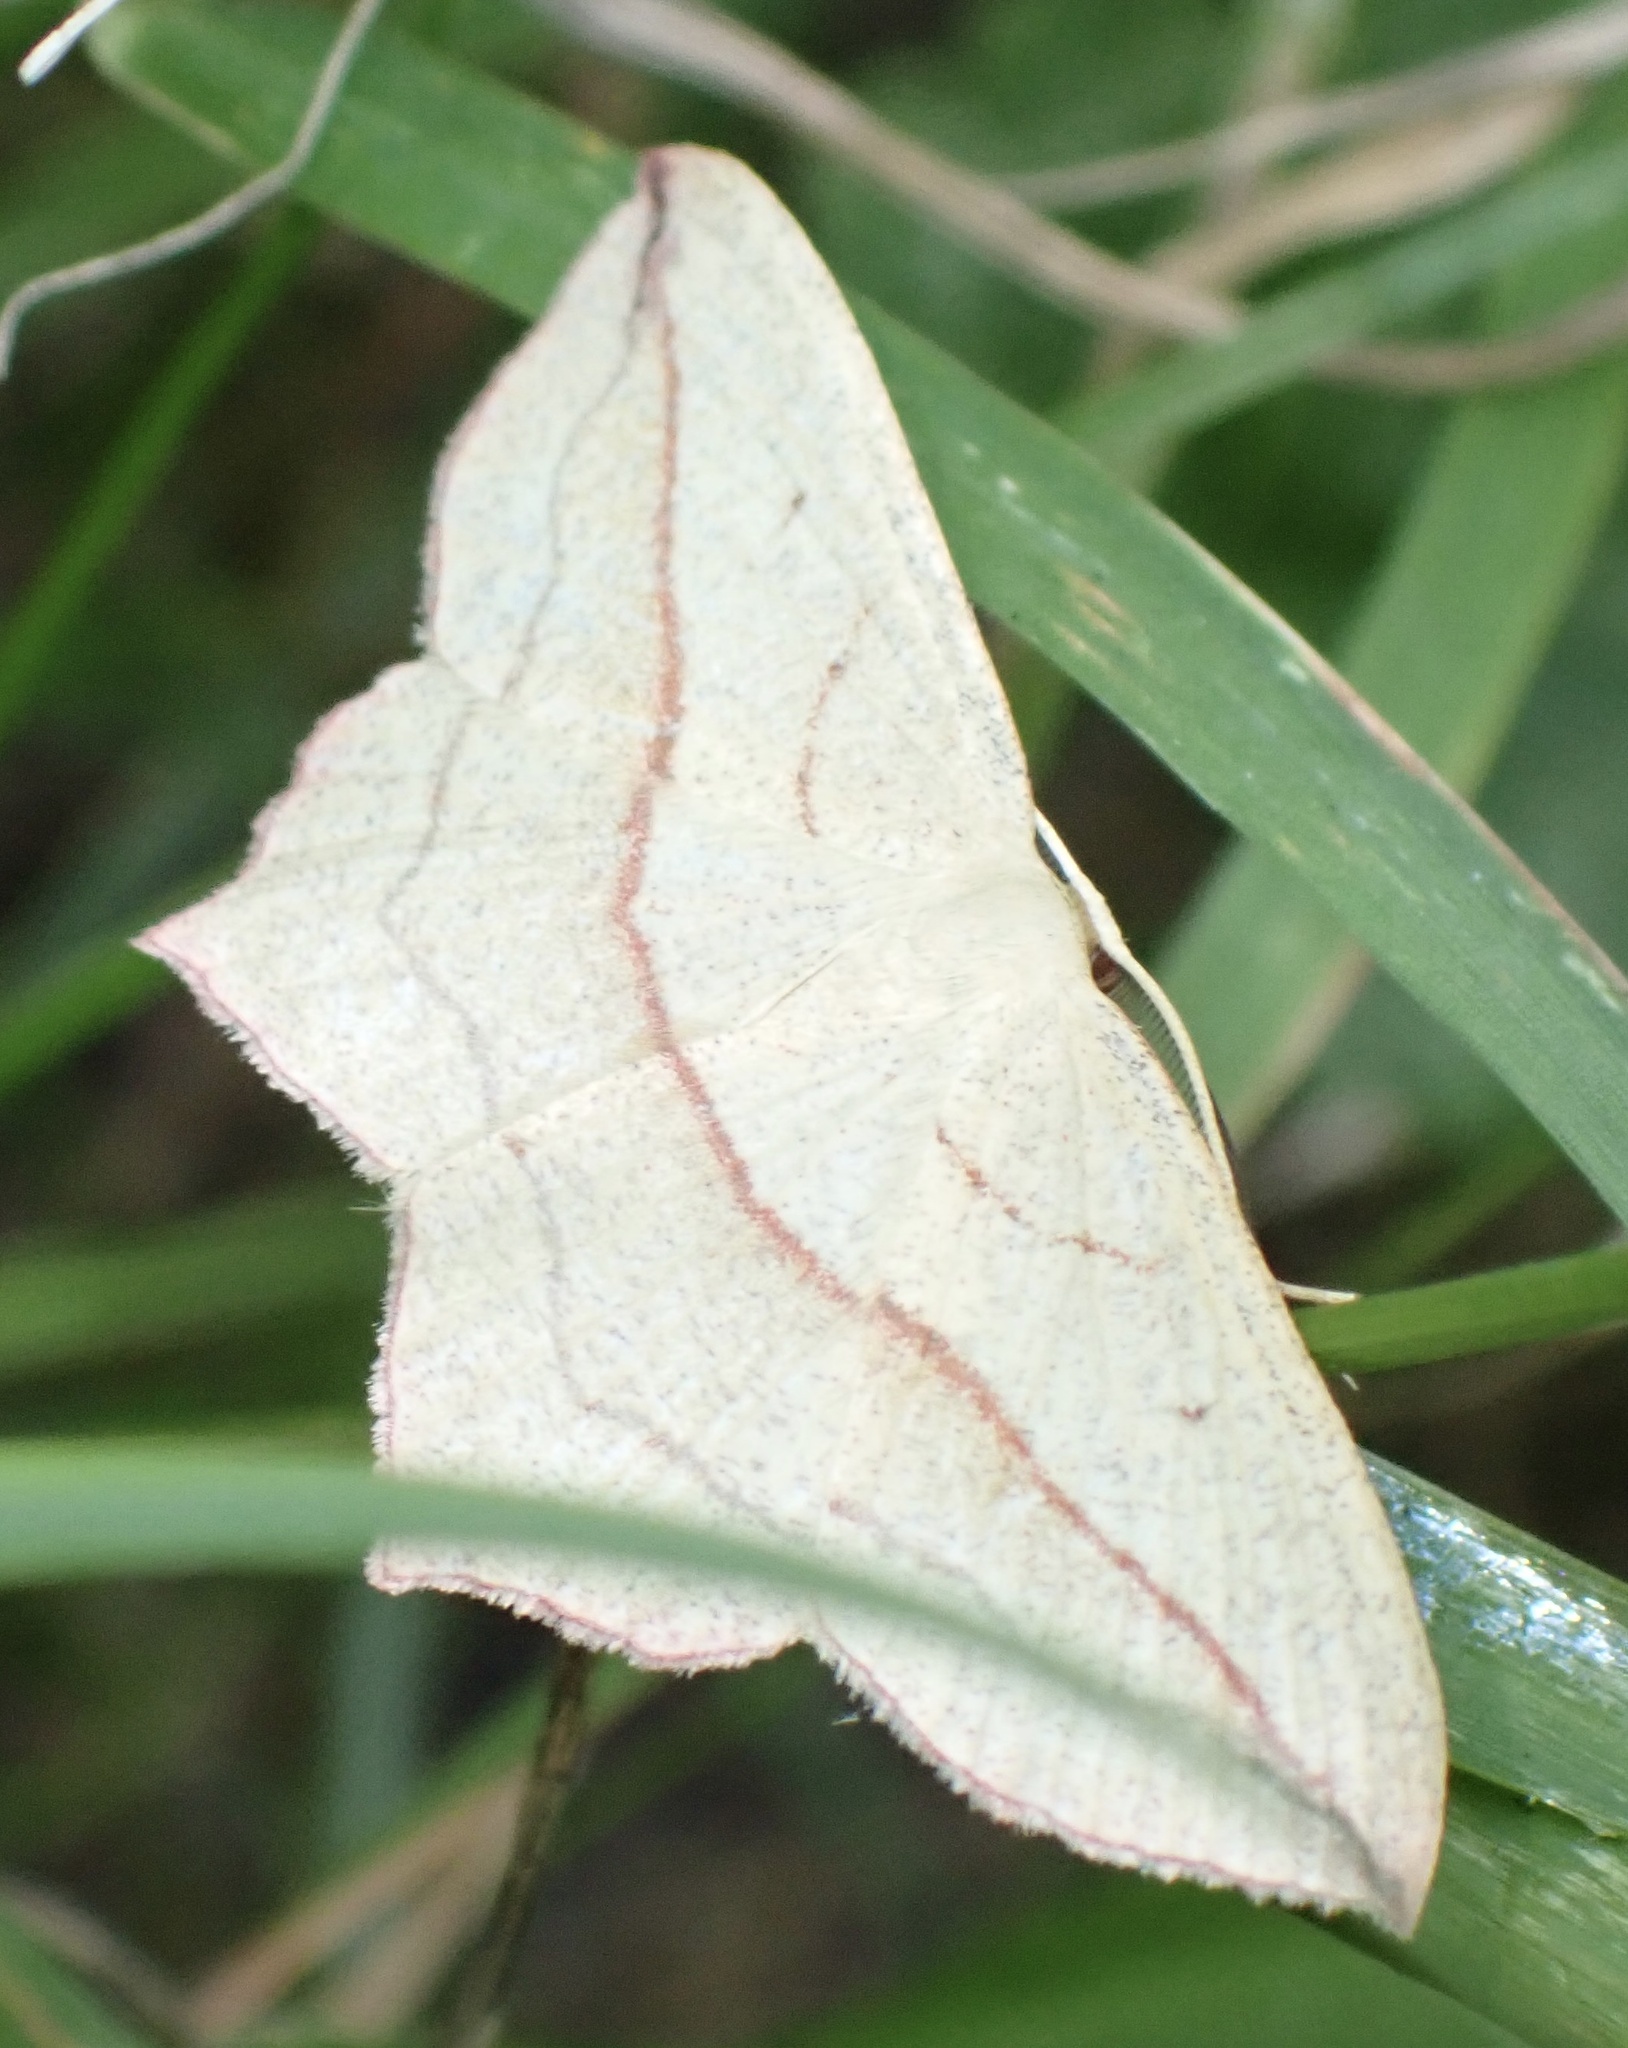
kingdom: Animalia
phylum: Arthropoda
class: Insecta
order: Lepidoptera
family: Geometridae
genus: Timandra
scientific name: Timandra comae
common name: Blood-vein
